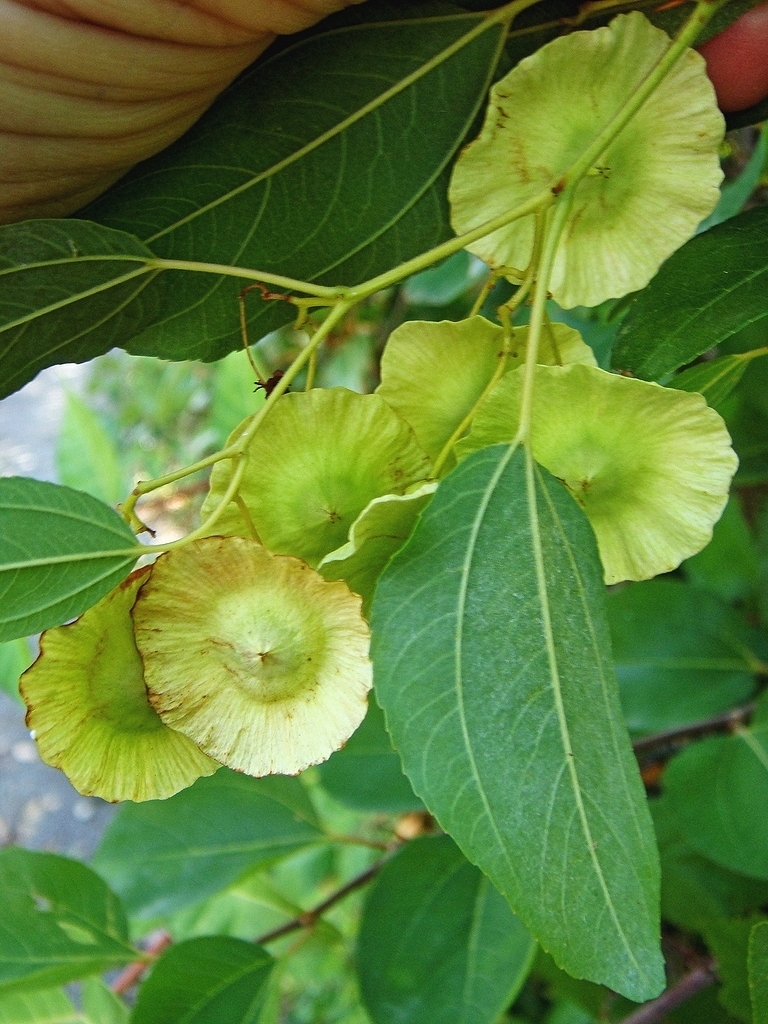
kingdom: Plantae
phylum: Tracheophyta
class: Magnoliopsida
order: Rosales
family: Rhamnaceae
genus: Paliurus
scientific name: Paliurus spina-christi
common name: Jeruselem thorn
